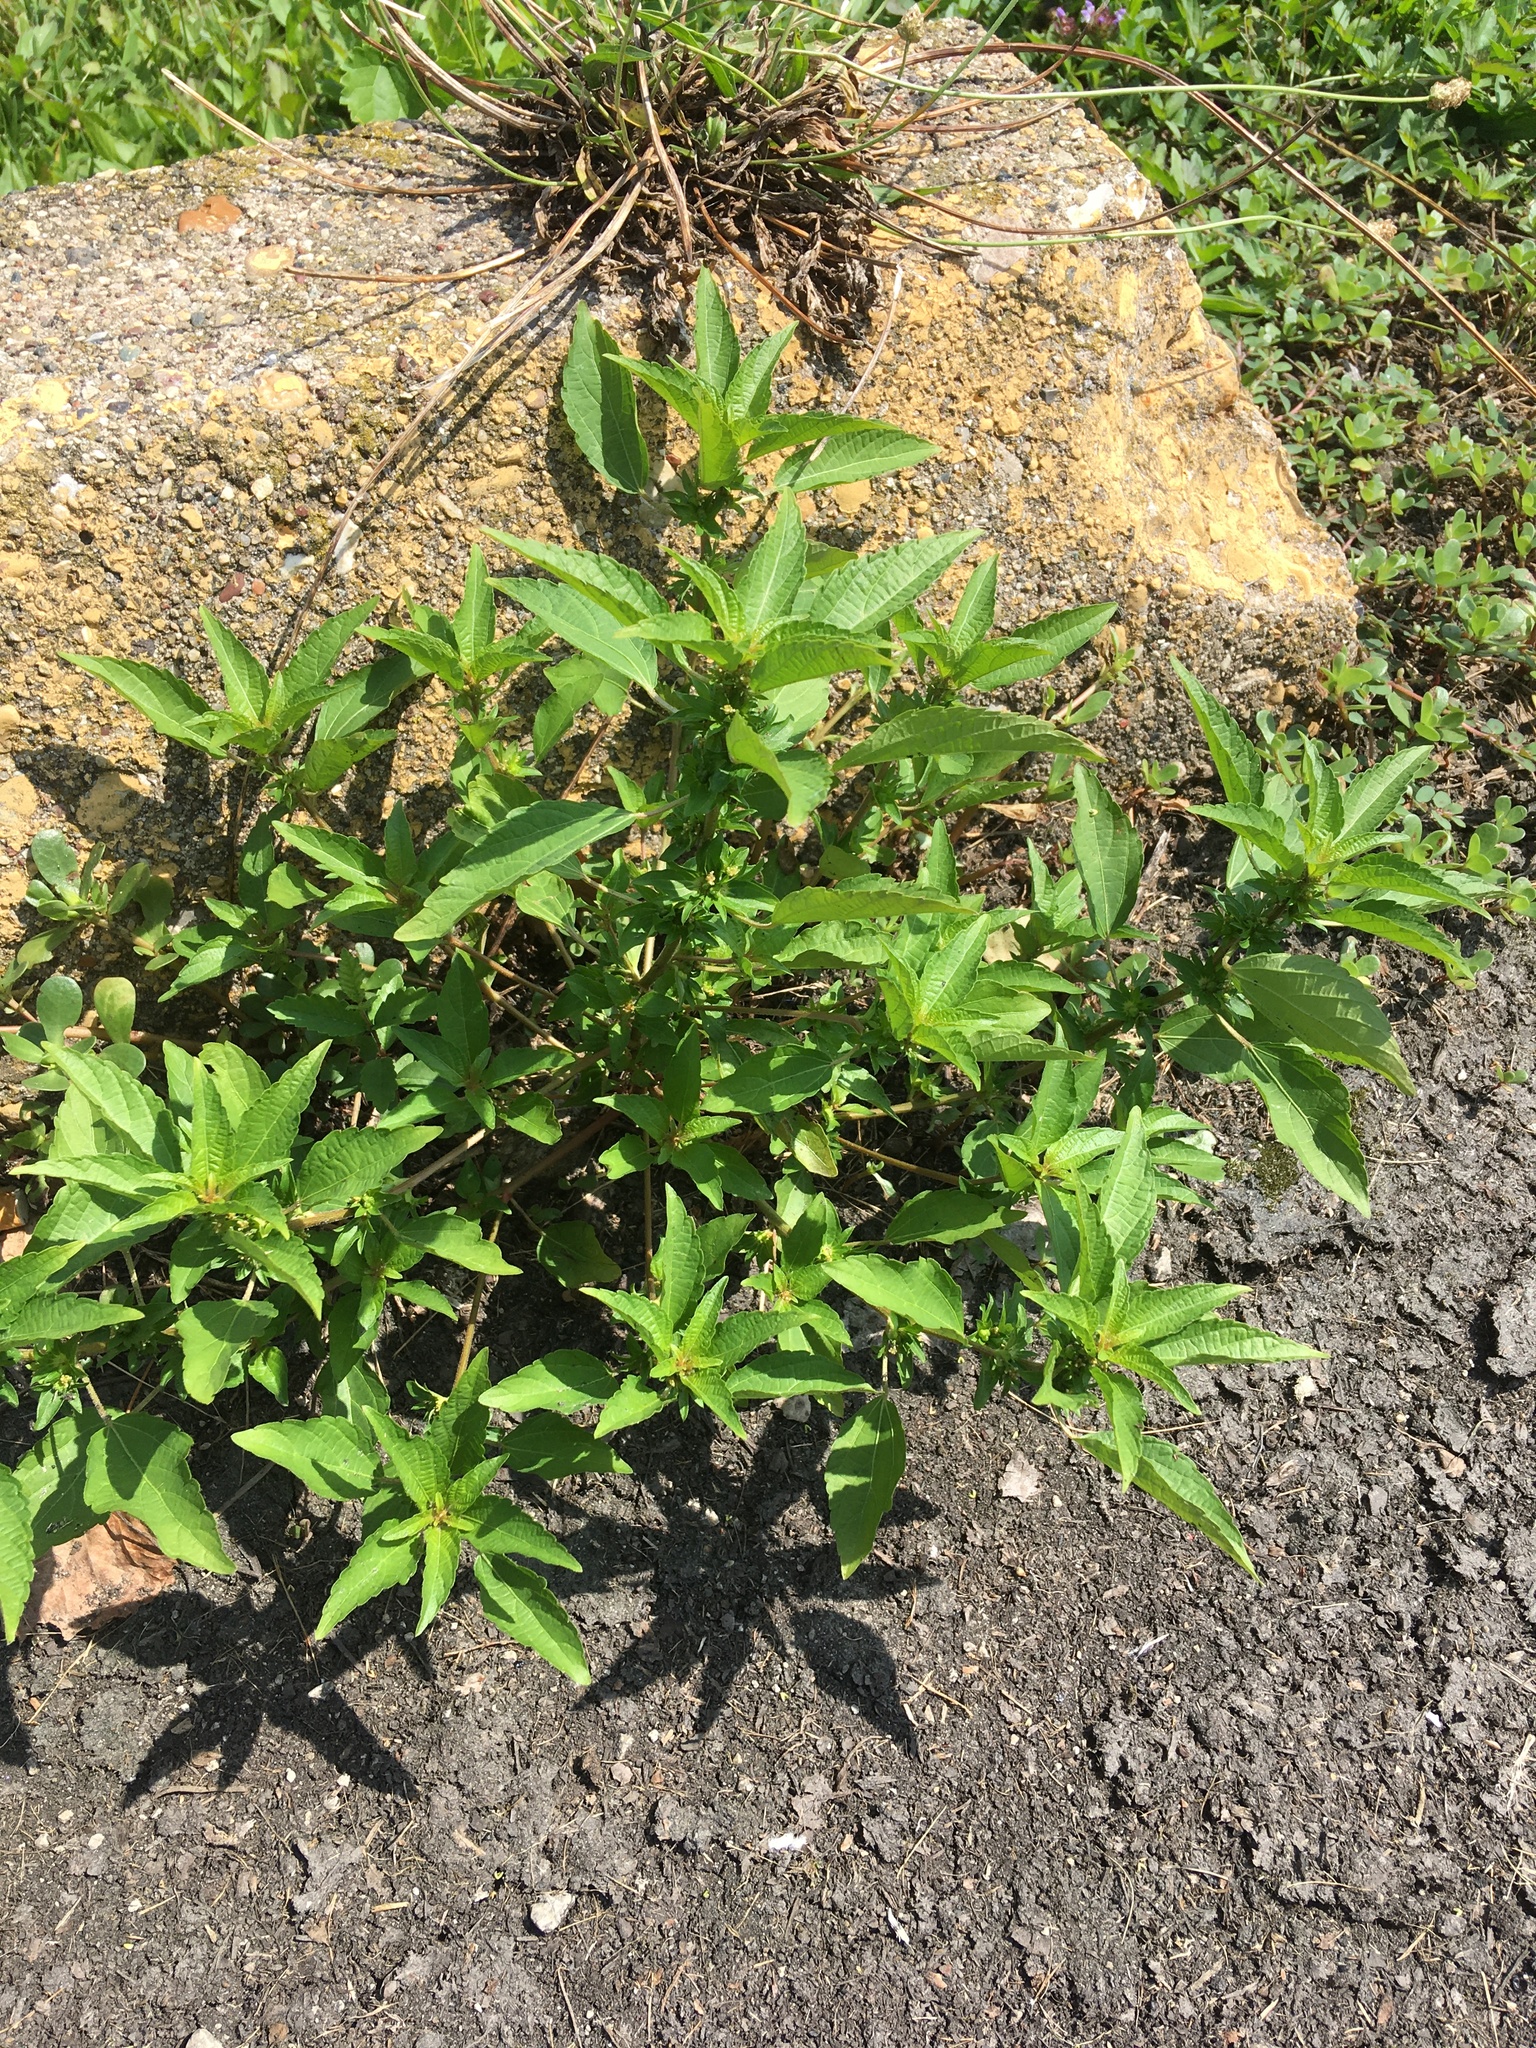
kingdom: Plantae
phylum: Tracheophyta
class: Magnoliopsida
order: Malpighiales
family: Euphorbiaceae
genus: Acalypha
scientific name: Acalypha rhomboidea
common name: Rhombic copperleaf
